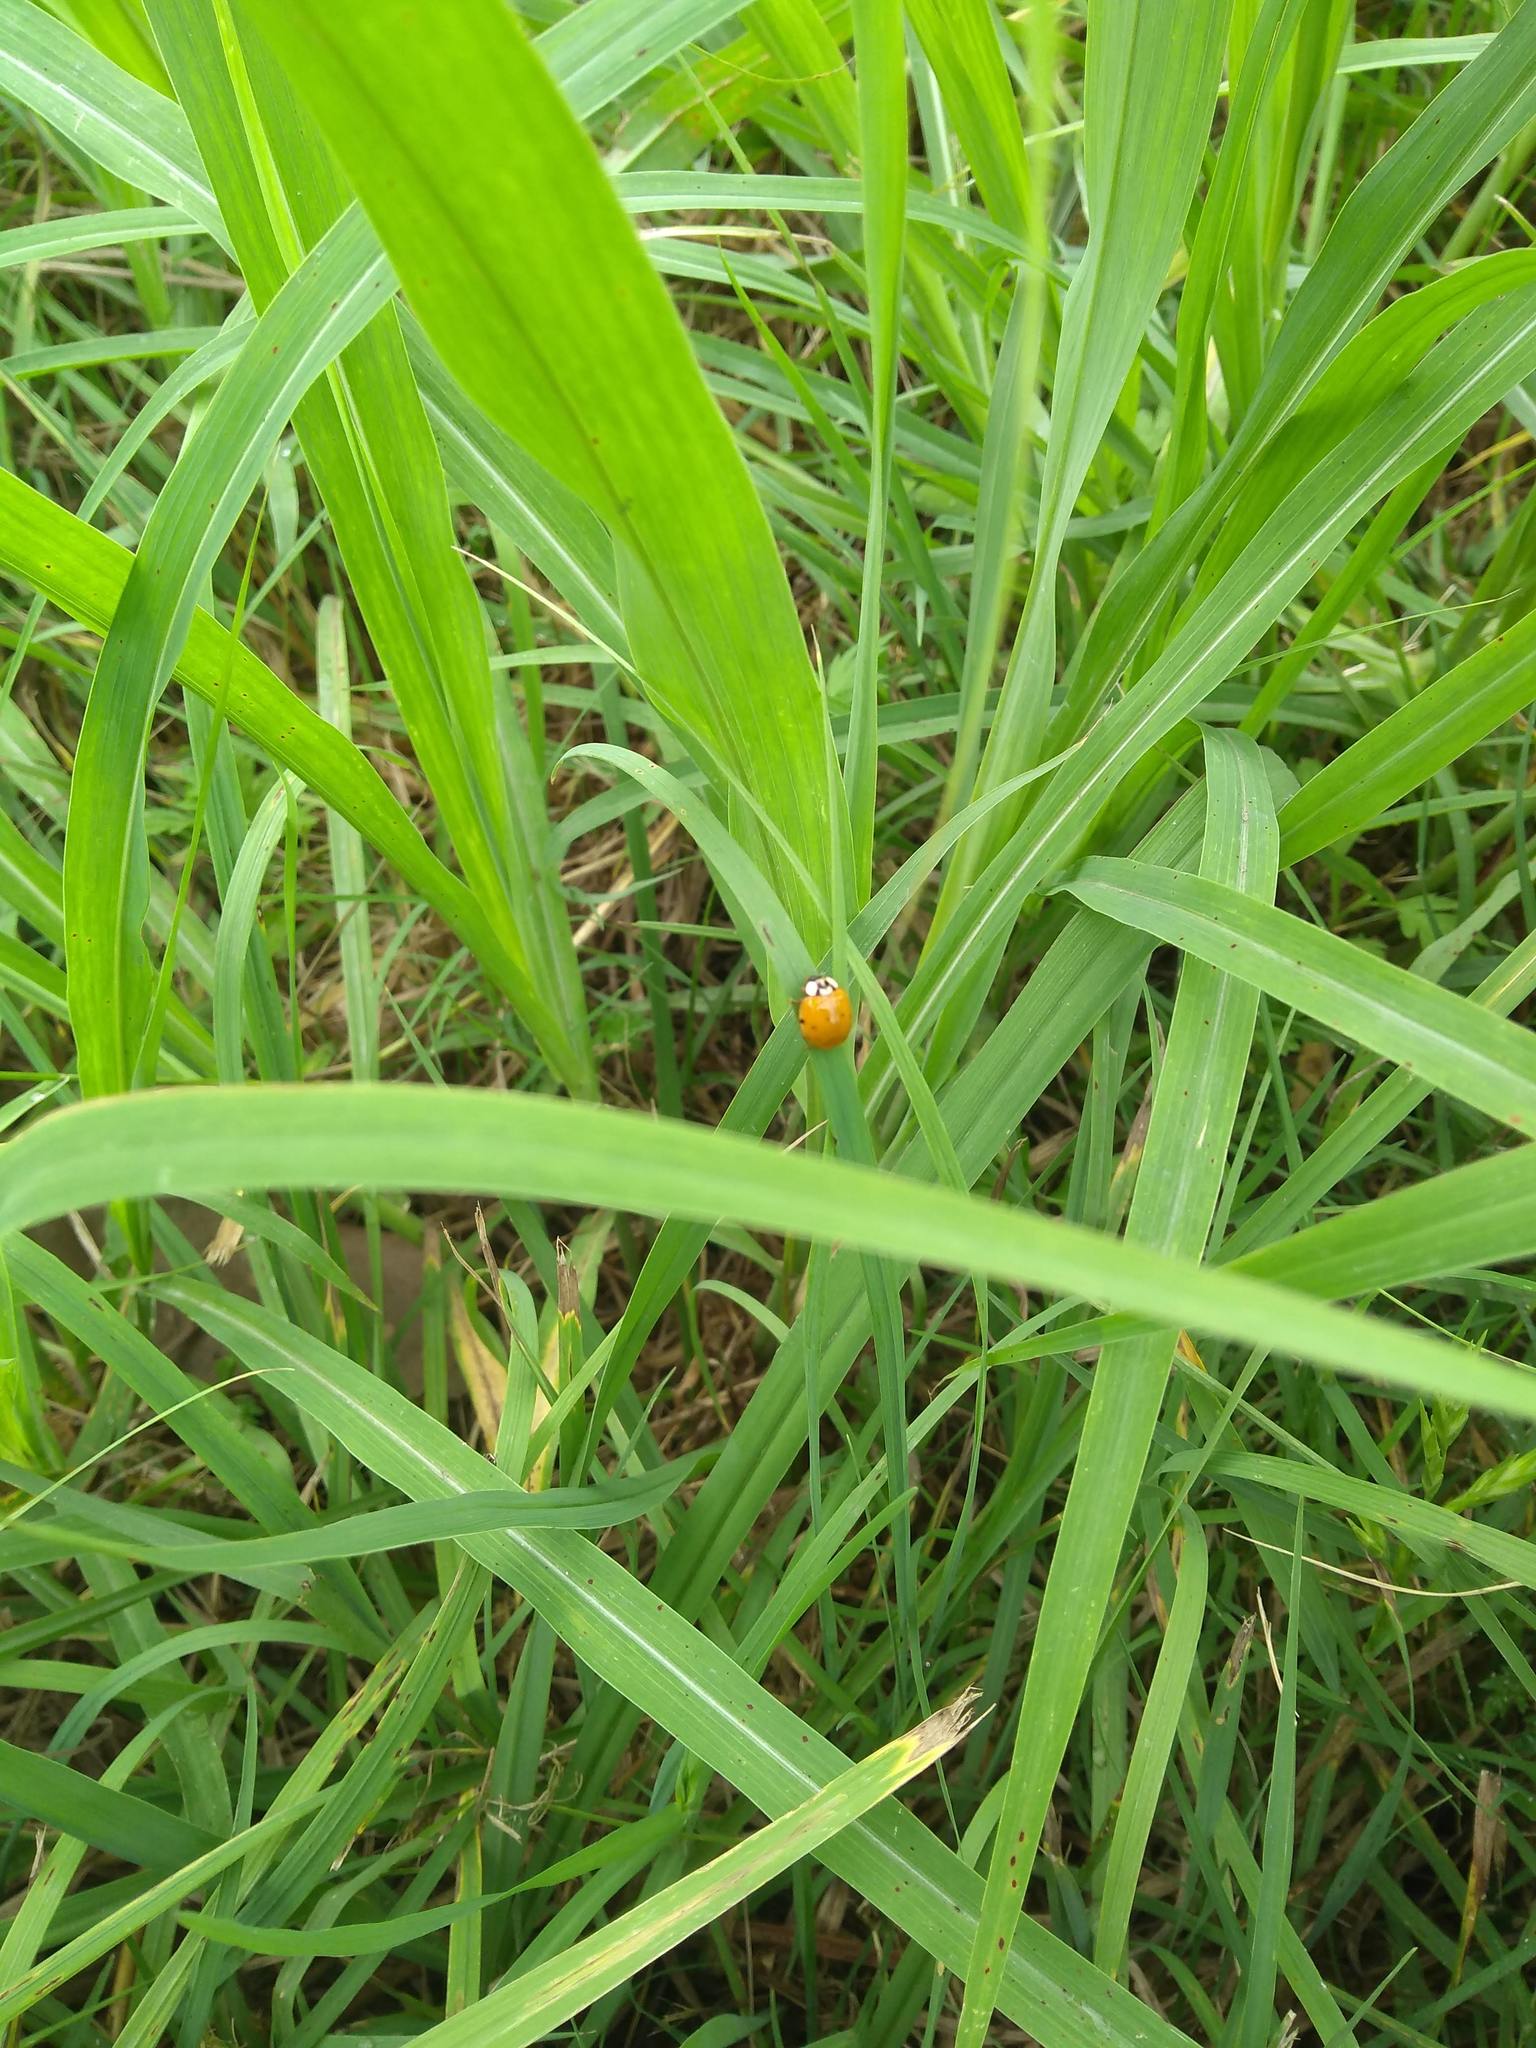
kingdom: Animalia
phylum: Arthropoda
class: Insecta
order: Coleoptera
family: Coccinellidae
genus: Harmonia
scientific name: Harmonia axyridis
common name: Harlequin ladybird
